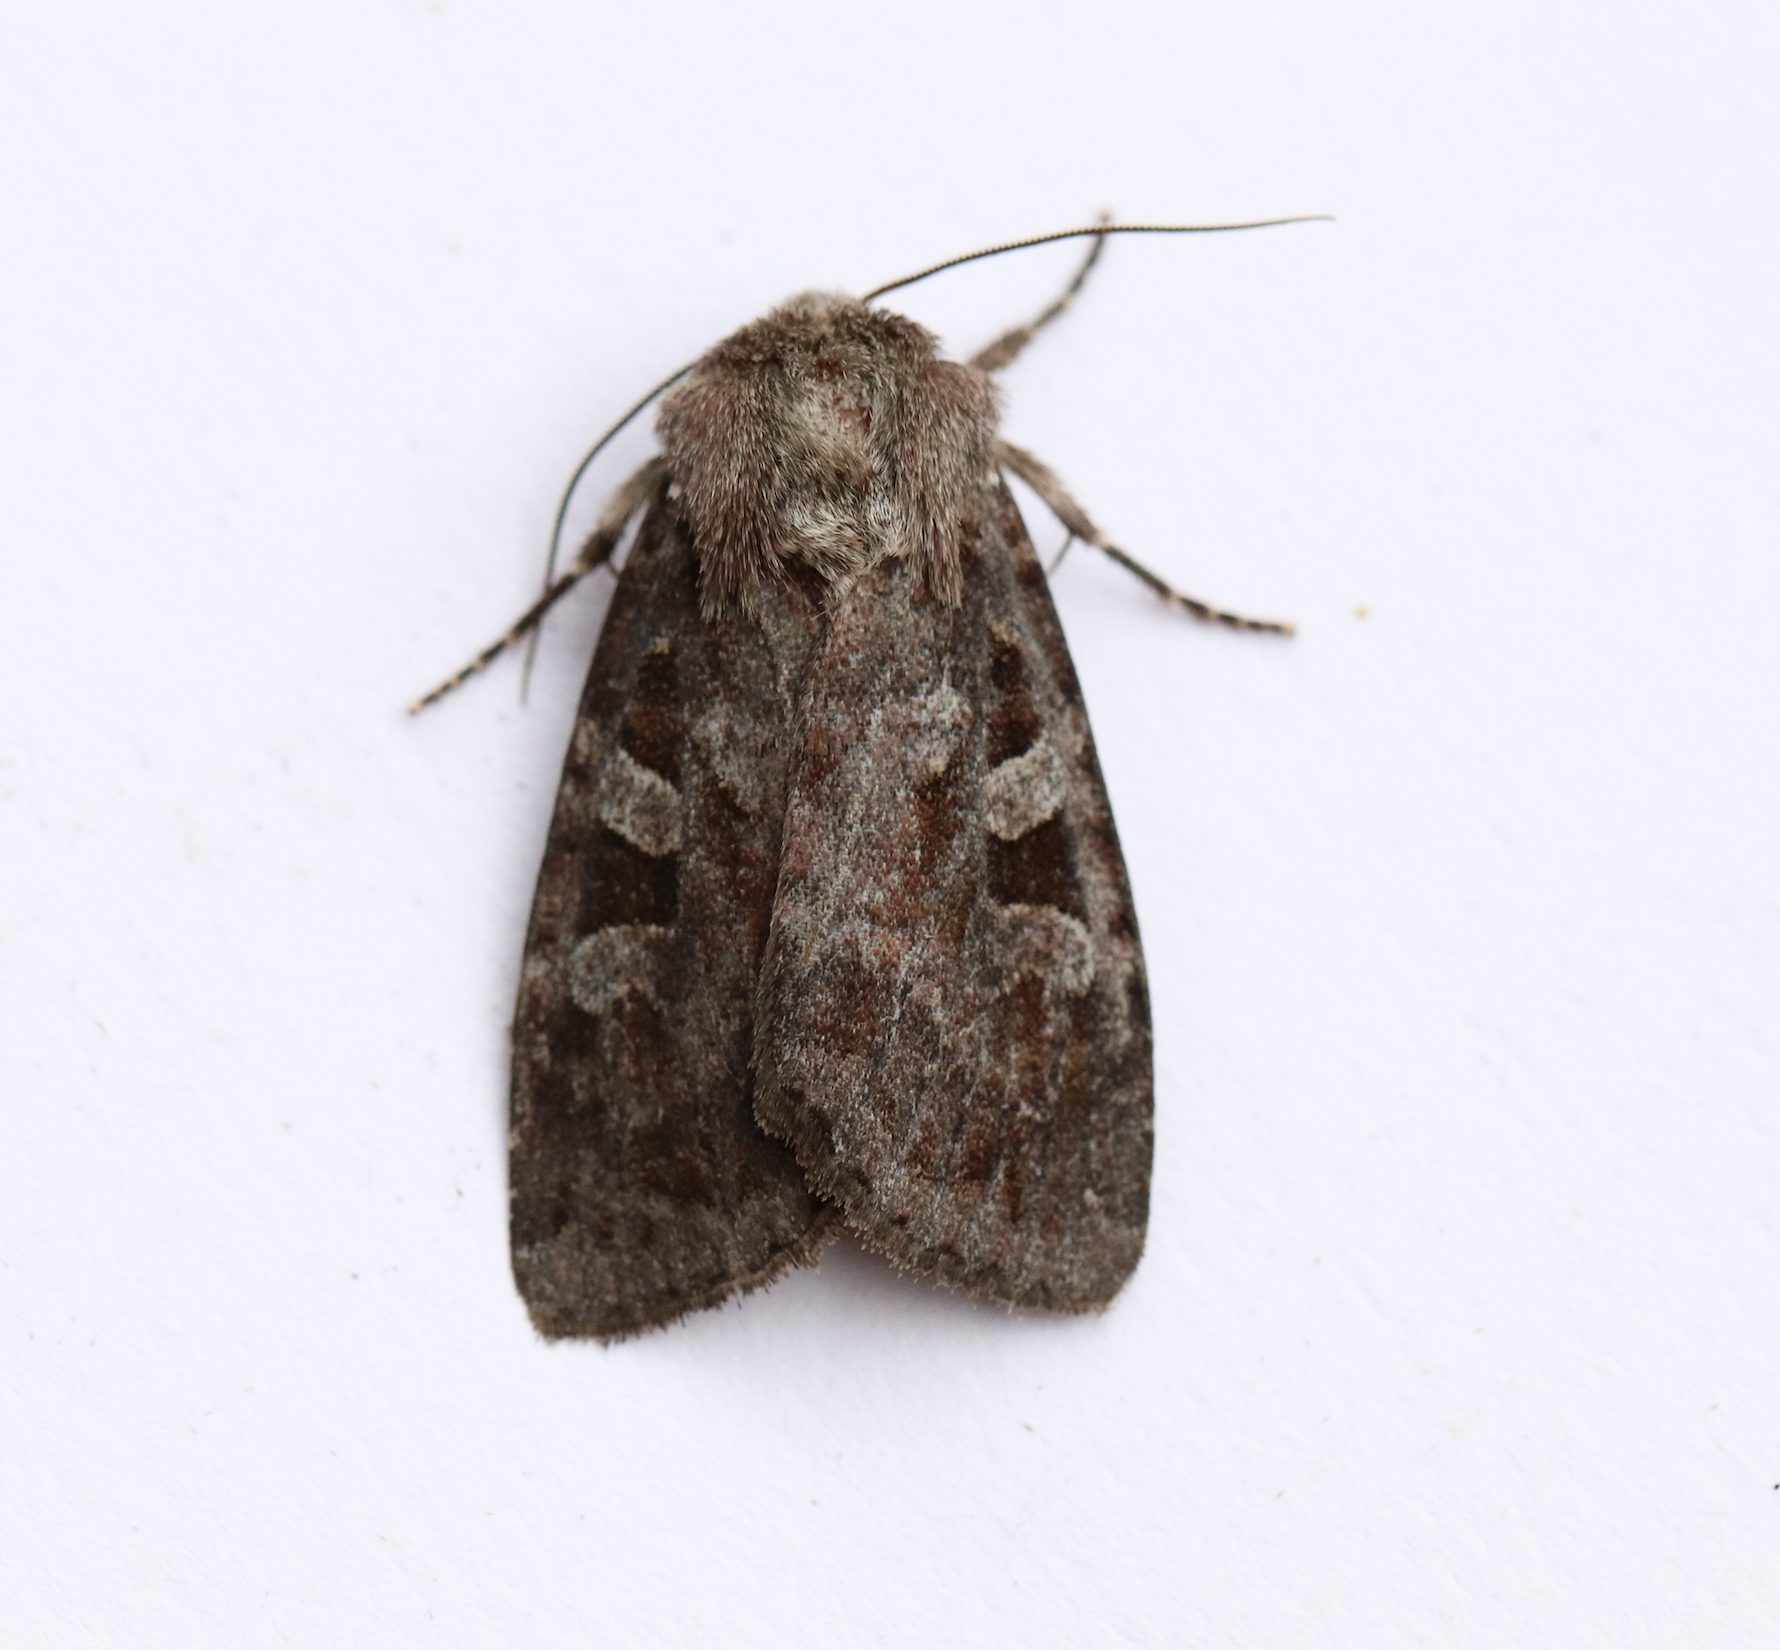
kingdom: Animalia
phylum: Arthropoda
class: Insecta
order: Lepidoptera
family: Noctuidae
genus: Eurois
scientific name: Eurois astricta
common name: Great brown dart
